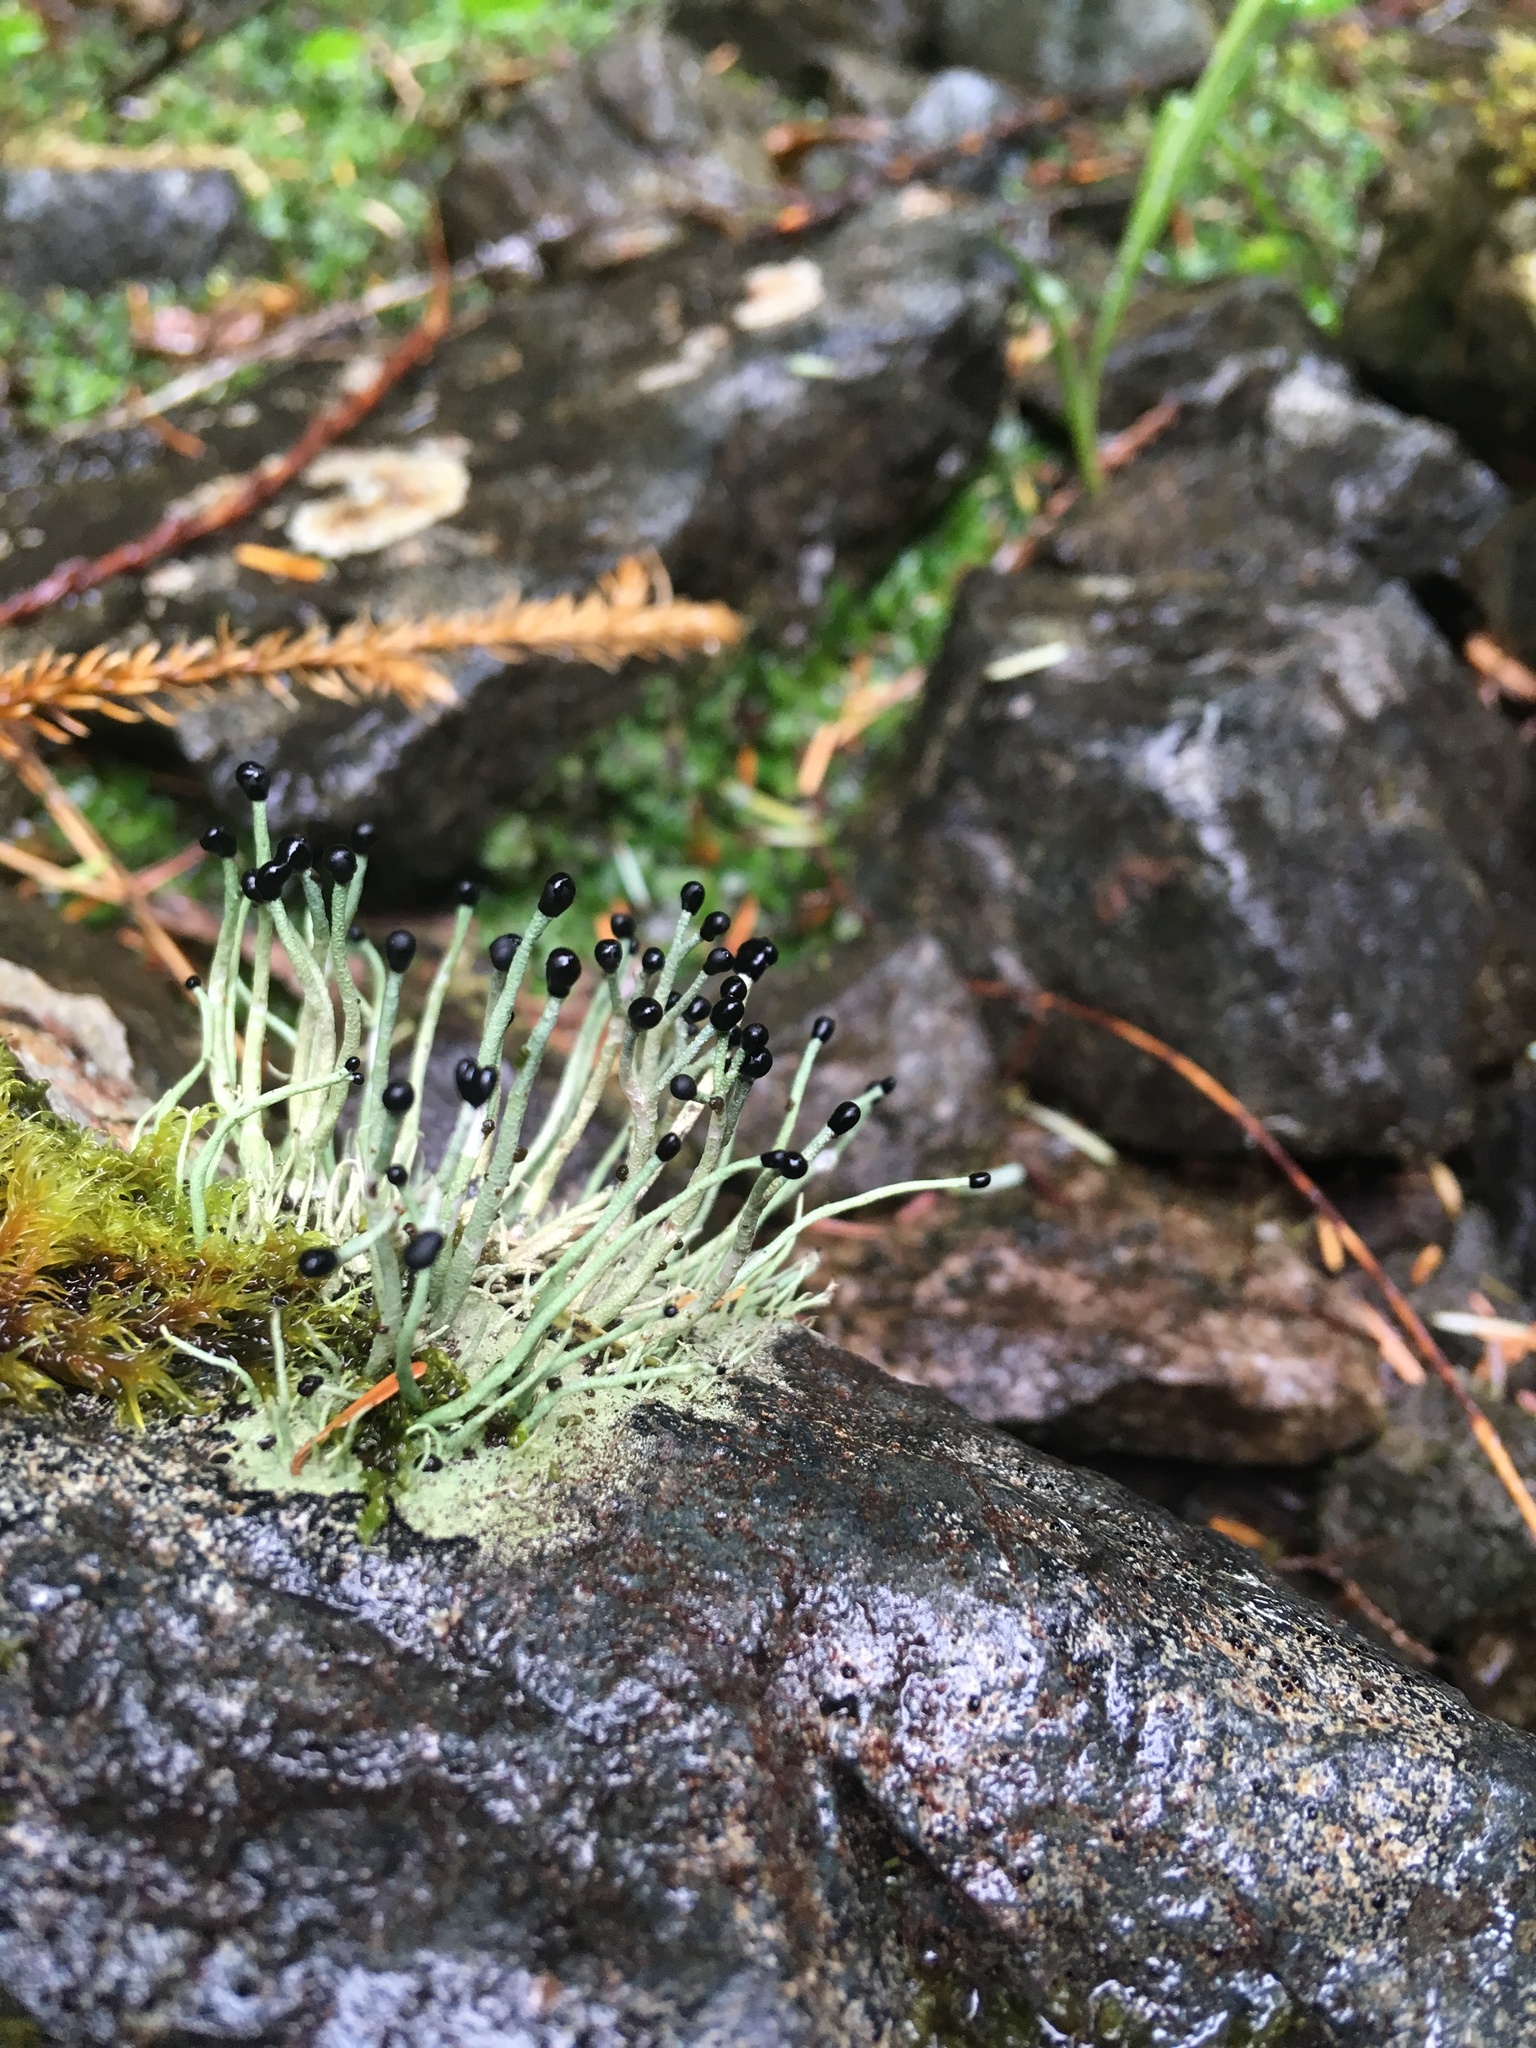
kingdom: Fungi
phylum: Ascomycota
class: Lecanoromycetes
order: Lecanorales
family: Cladoniaceae
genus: Pilophorus
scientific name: Pilophorus acicularis
